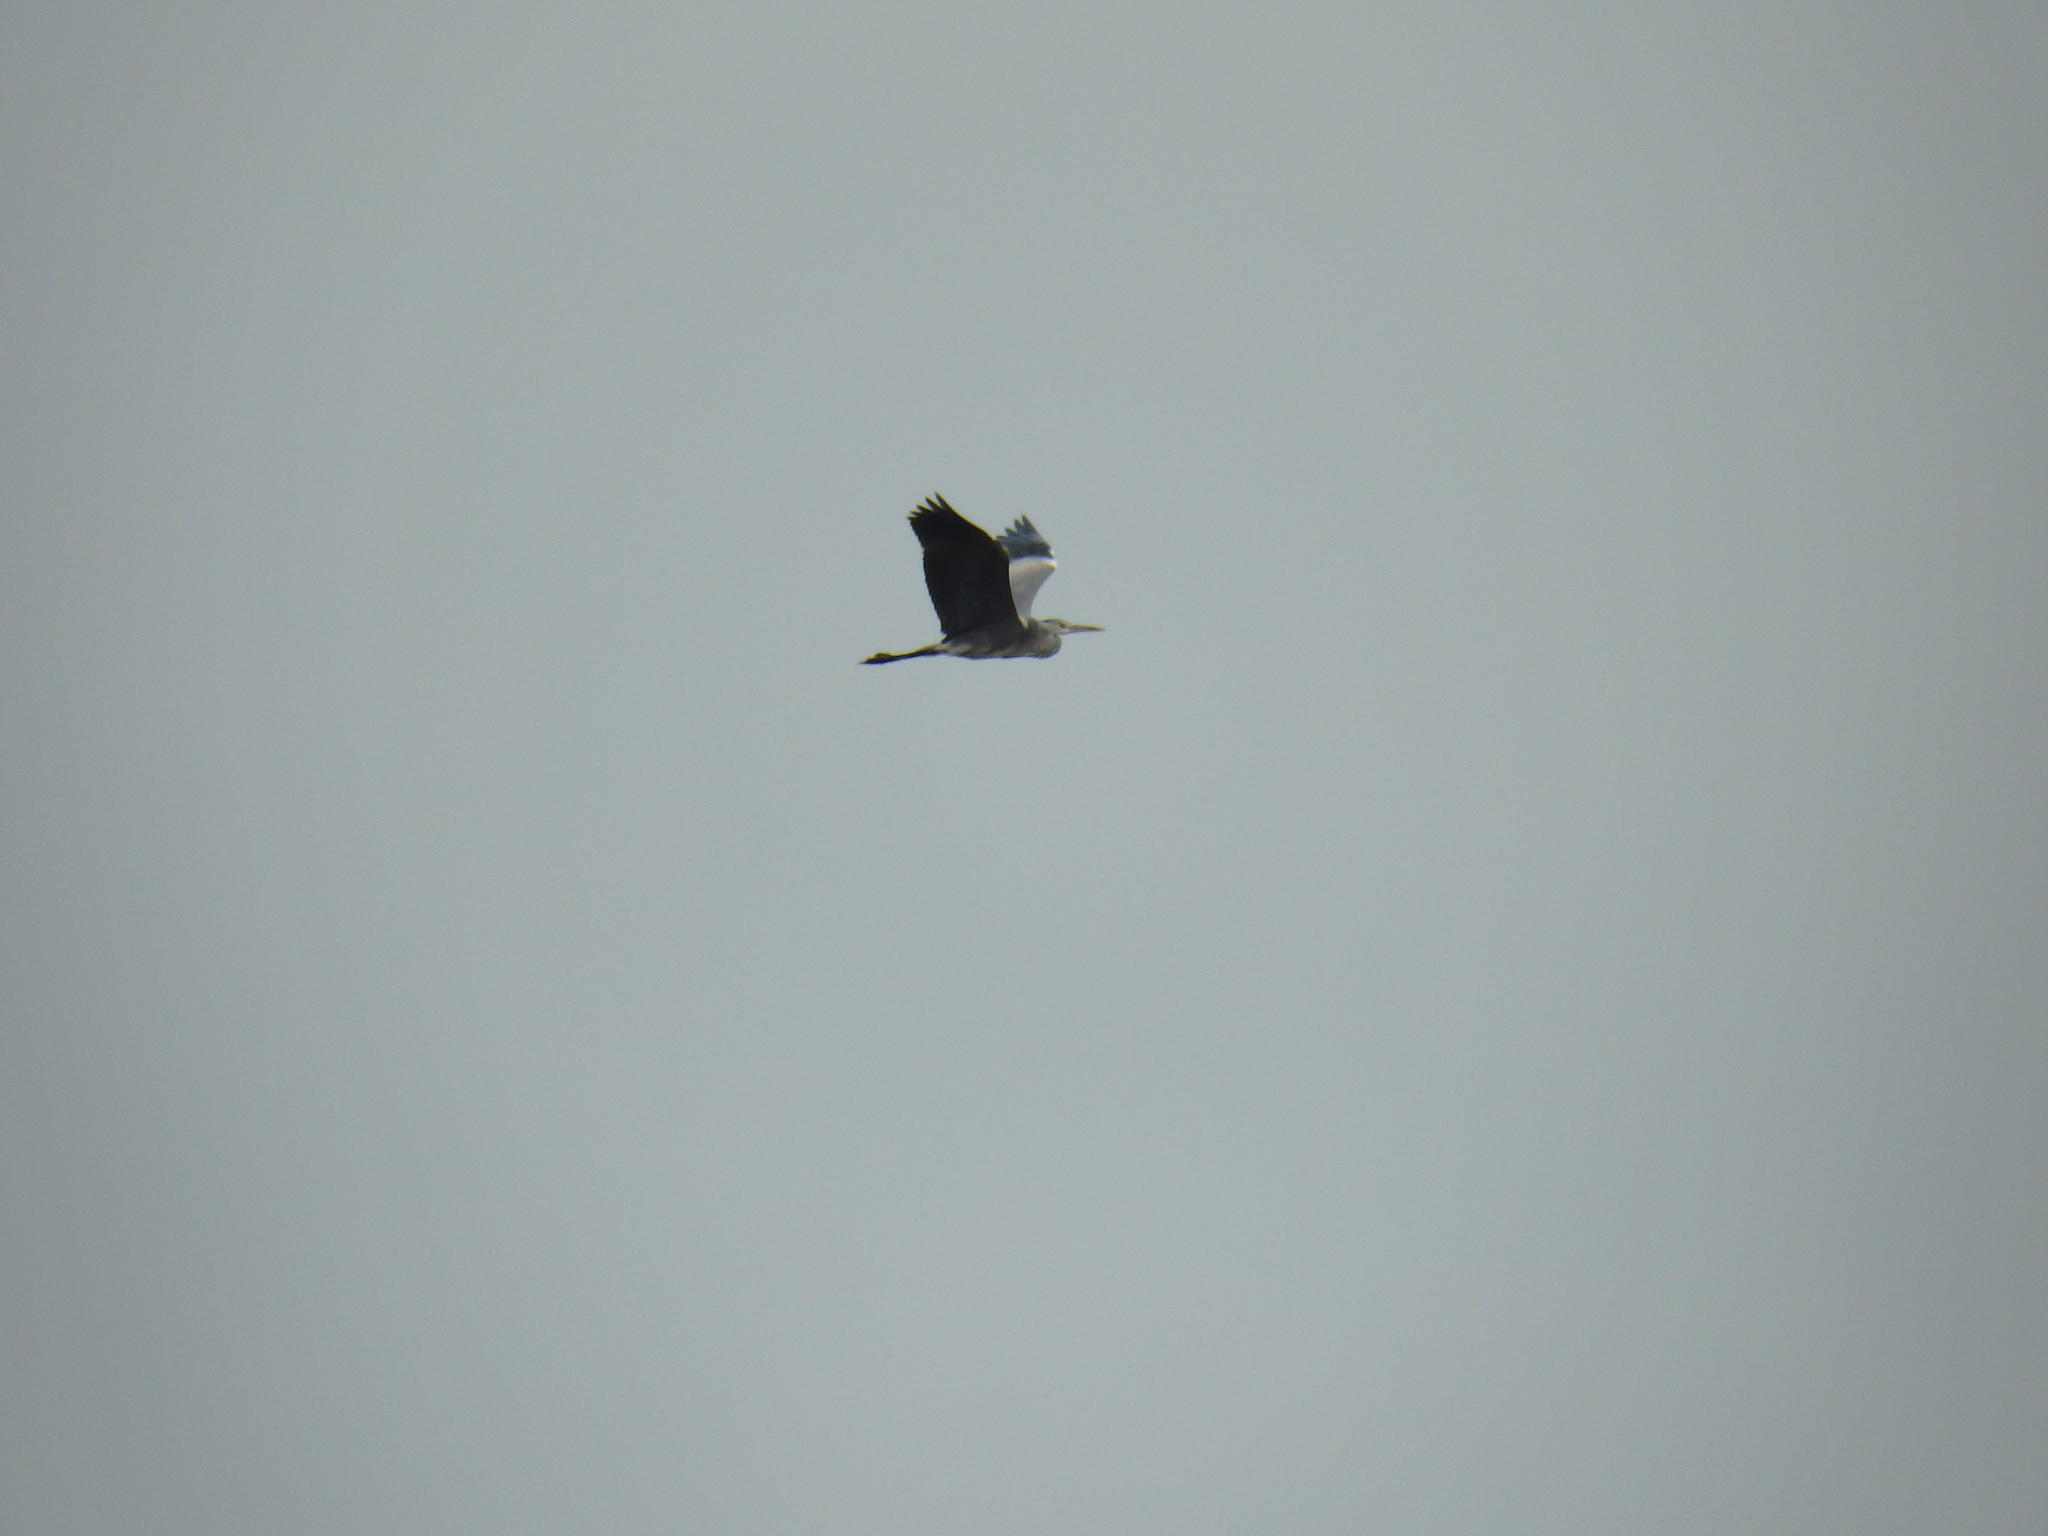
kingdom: Animalia
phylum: Chordata
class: Aves
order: Pelecaniformes
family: Ardeidae
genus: Ardea
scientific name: Ardea cinerea
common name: Grey heron
